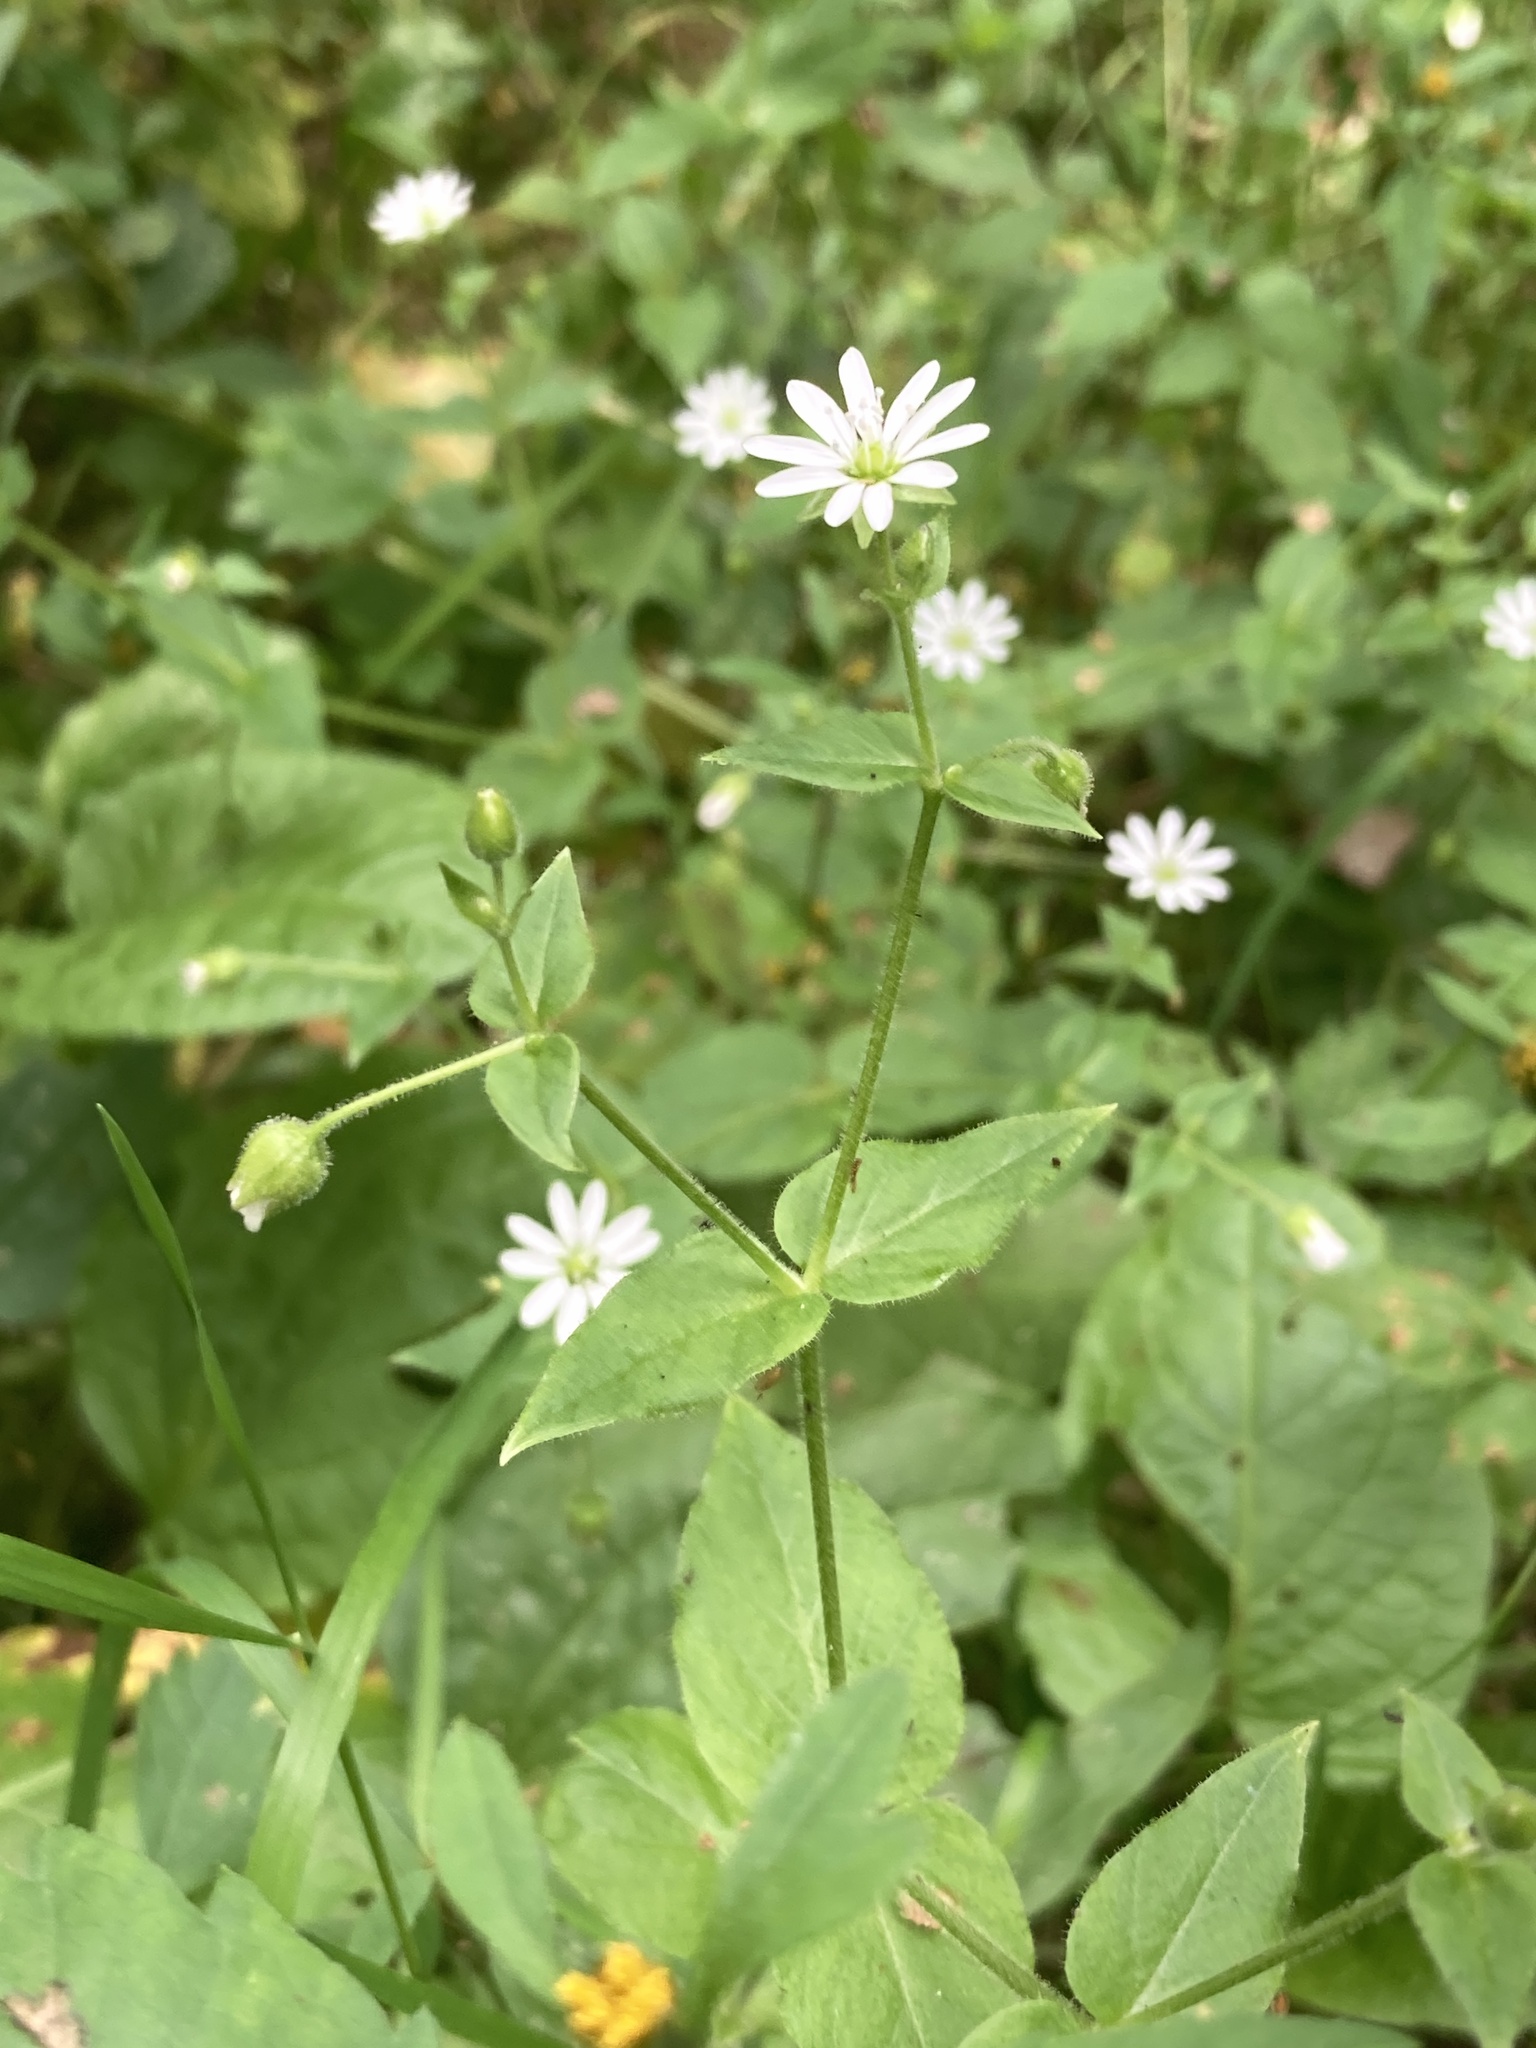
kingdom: Plantae
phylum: Tracheophyta
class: Magnoliopsida
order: Caryophyllales
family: Caryophyllaceae
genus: Stellaria
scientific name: Stellaria aquatica
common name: Water chickweed
